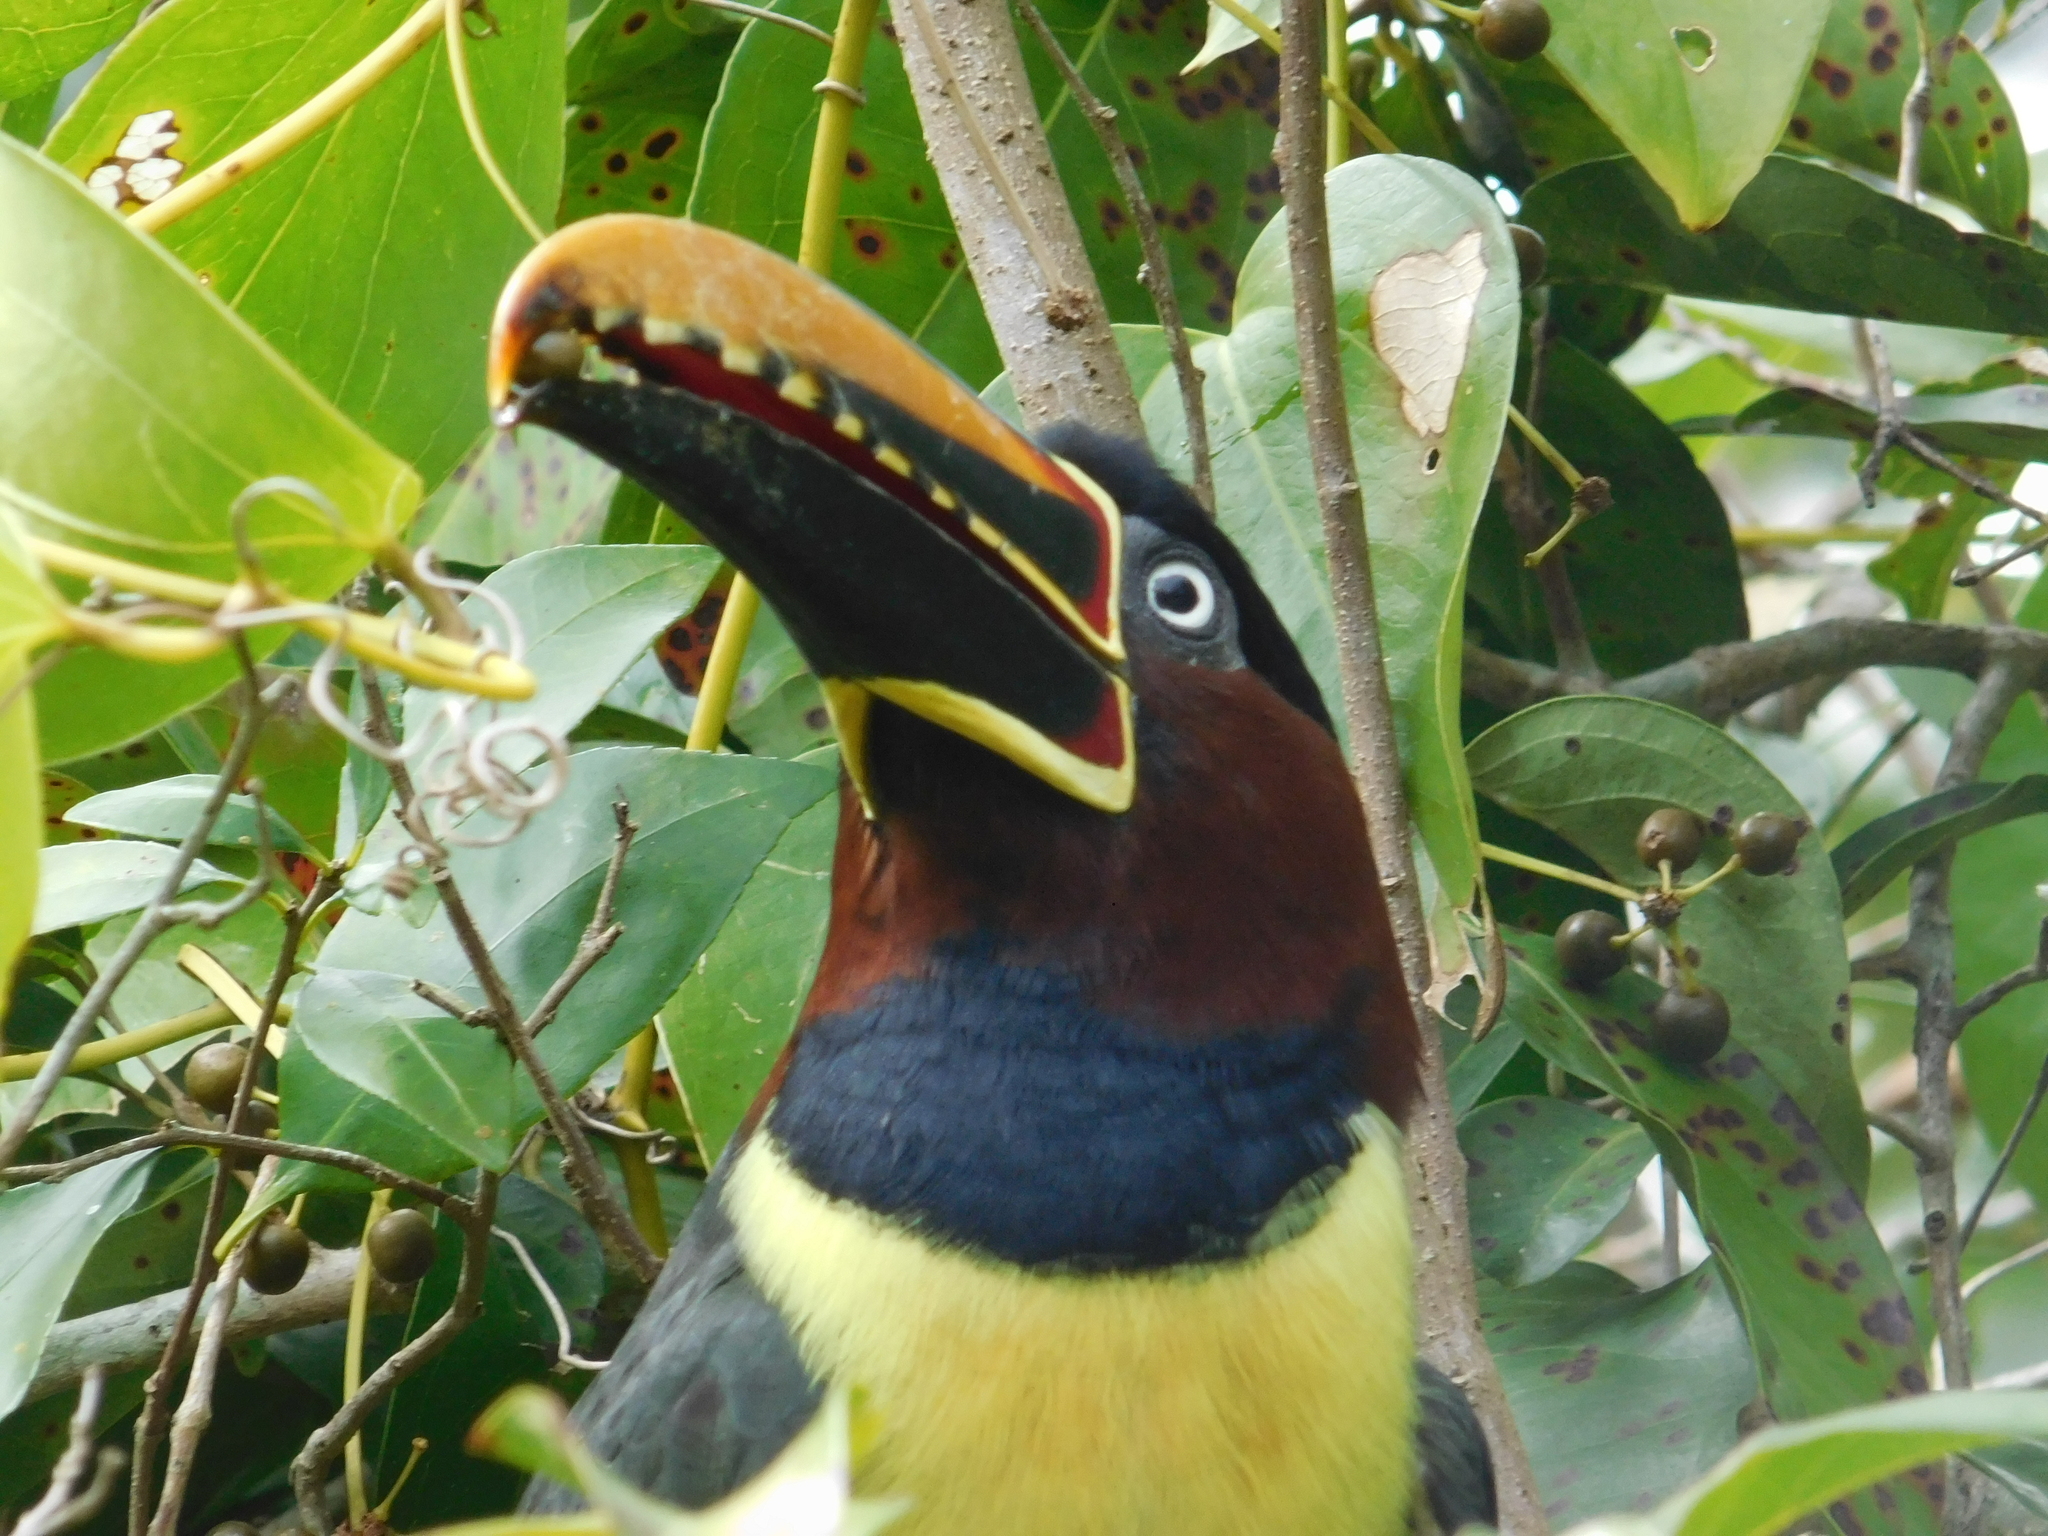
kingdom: Animalia
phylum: Chordata
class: Aves
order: Piciformes
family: Ramphastidae
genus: Pteroglossus
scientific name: Pteroglossus castanotis
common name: Chestnut-eared aracari
